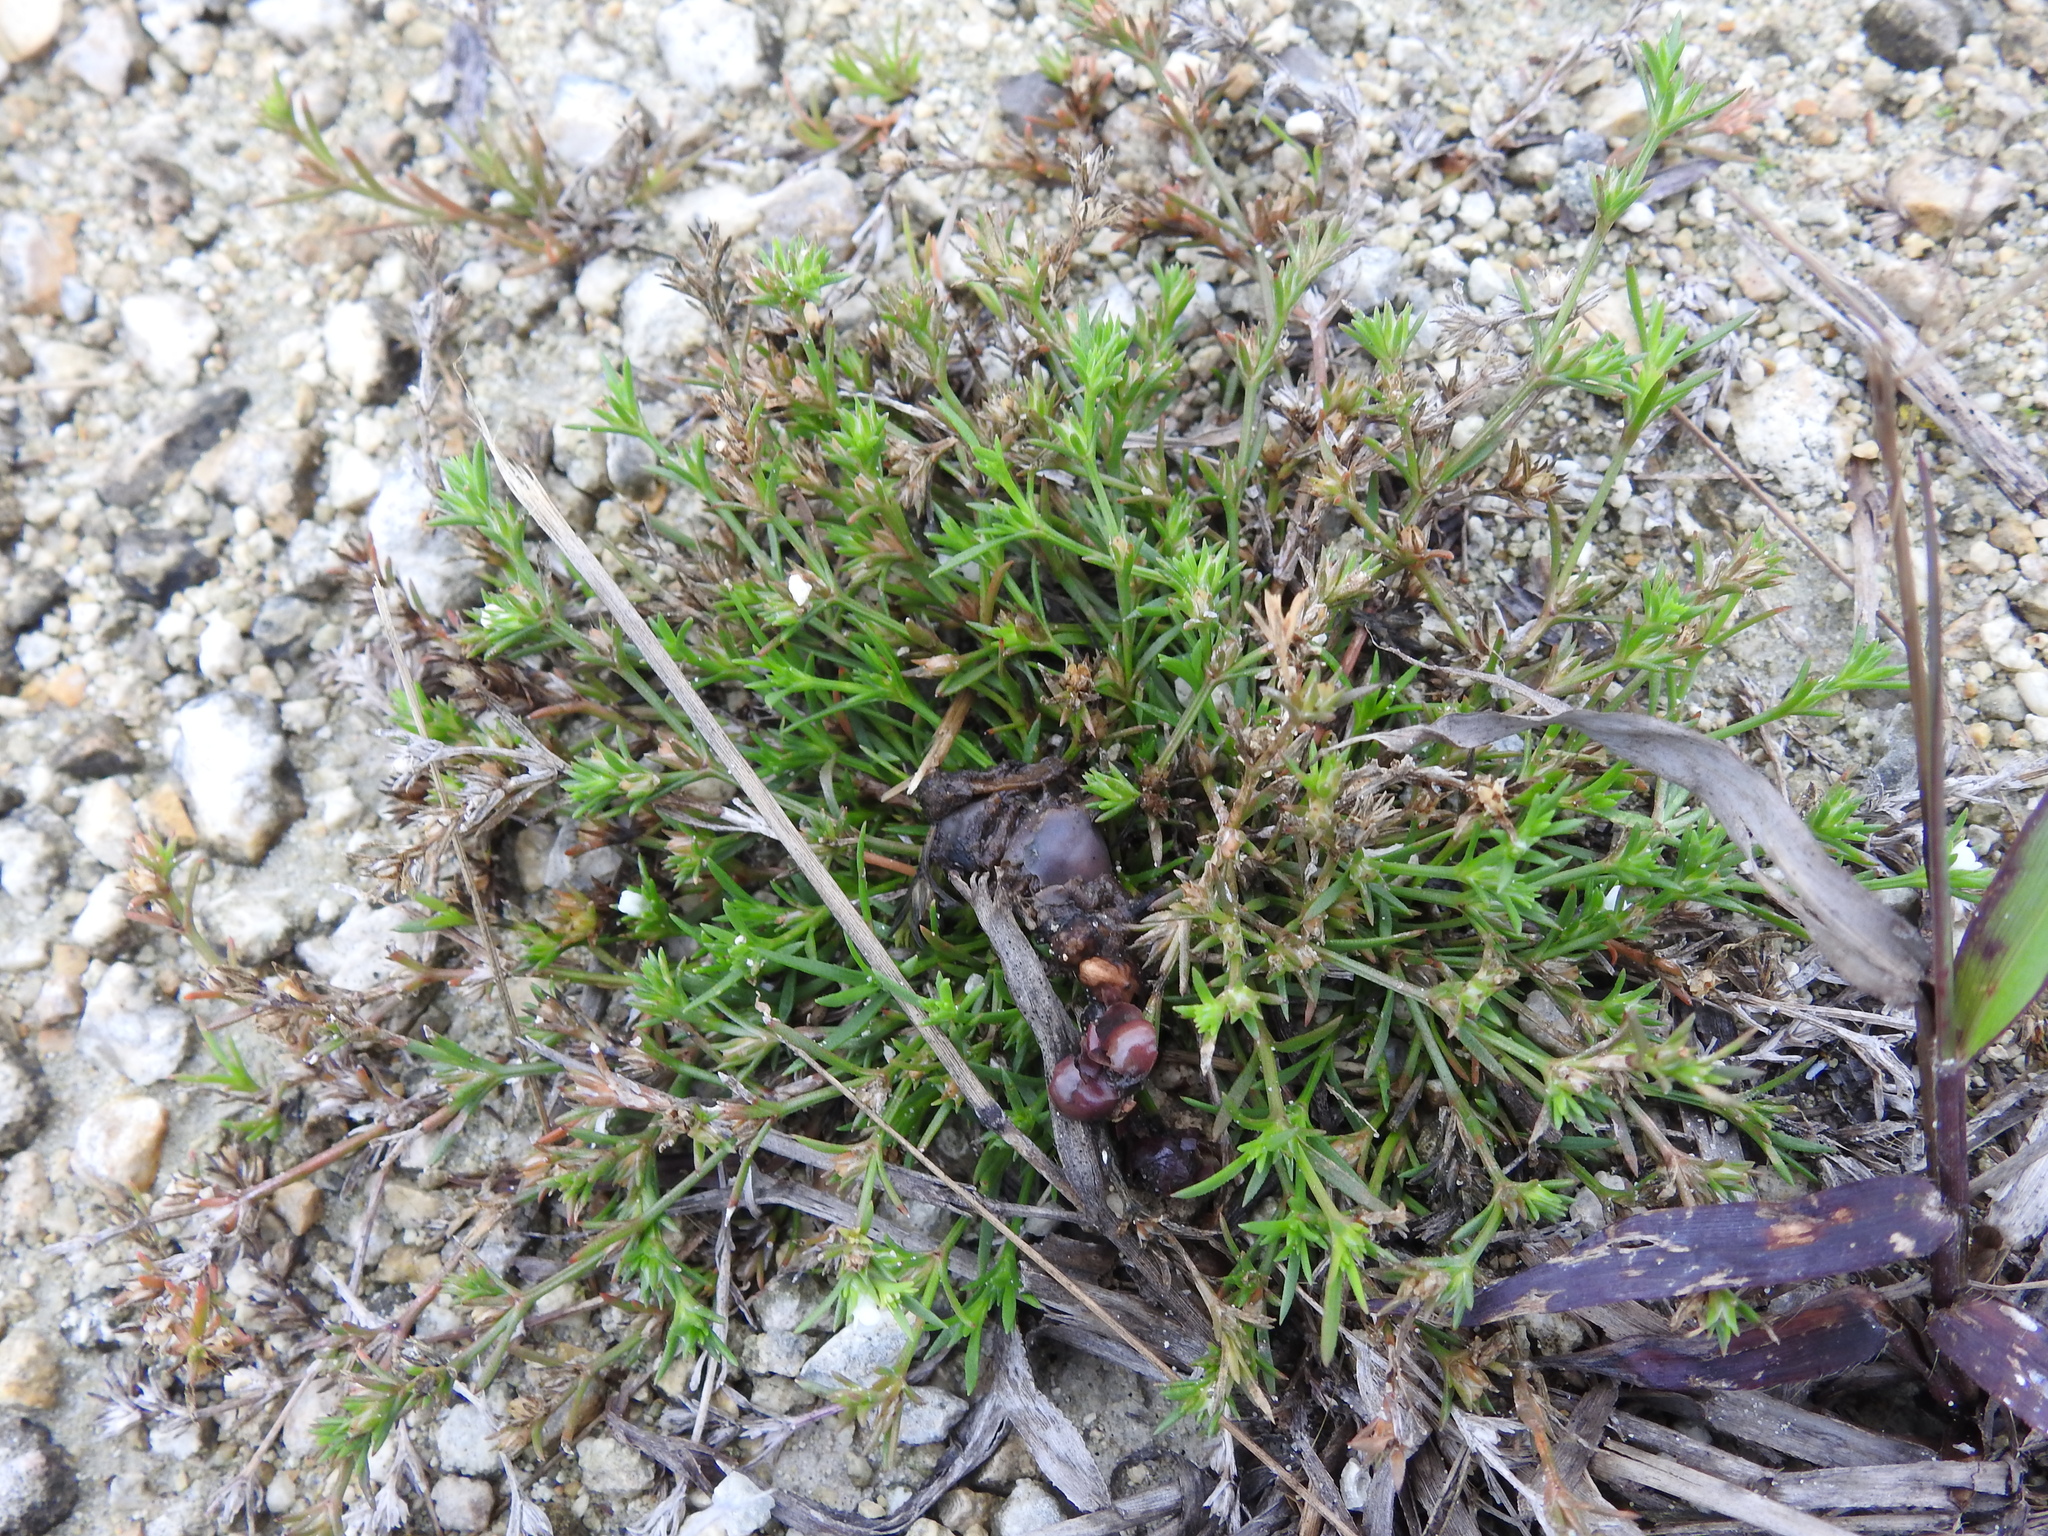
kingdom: Plantae
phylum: Tracheophyta
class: Magnoliopsida
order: Lamiales
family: Tetrachondraceae
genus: Polypremum
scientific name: Polypremum procumbens
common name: Juniper-leaf
